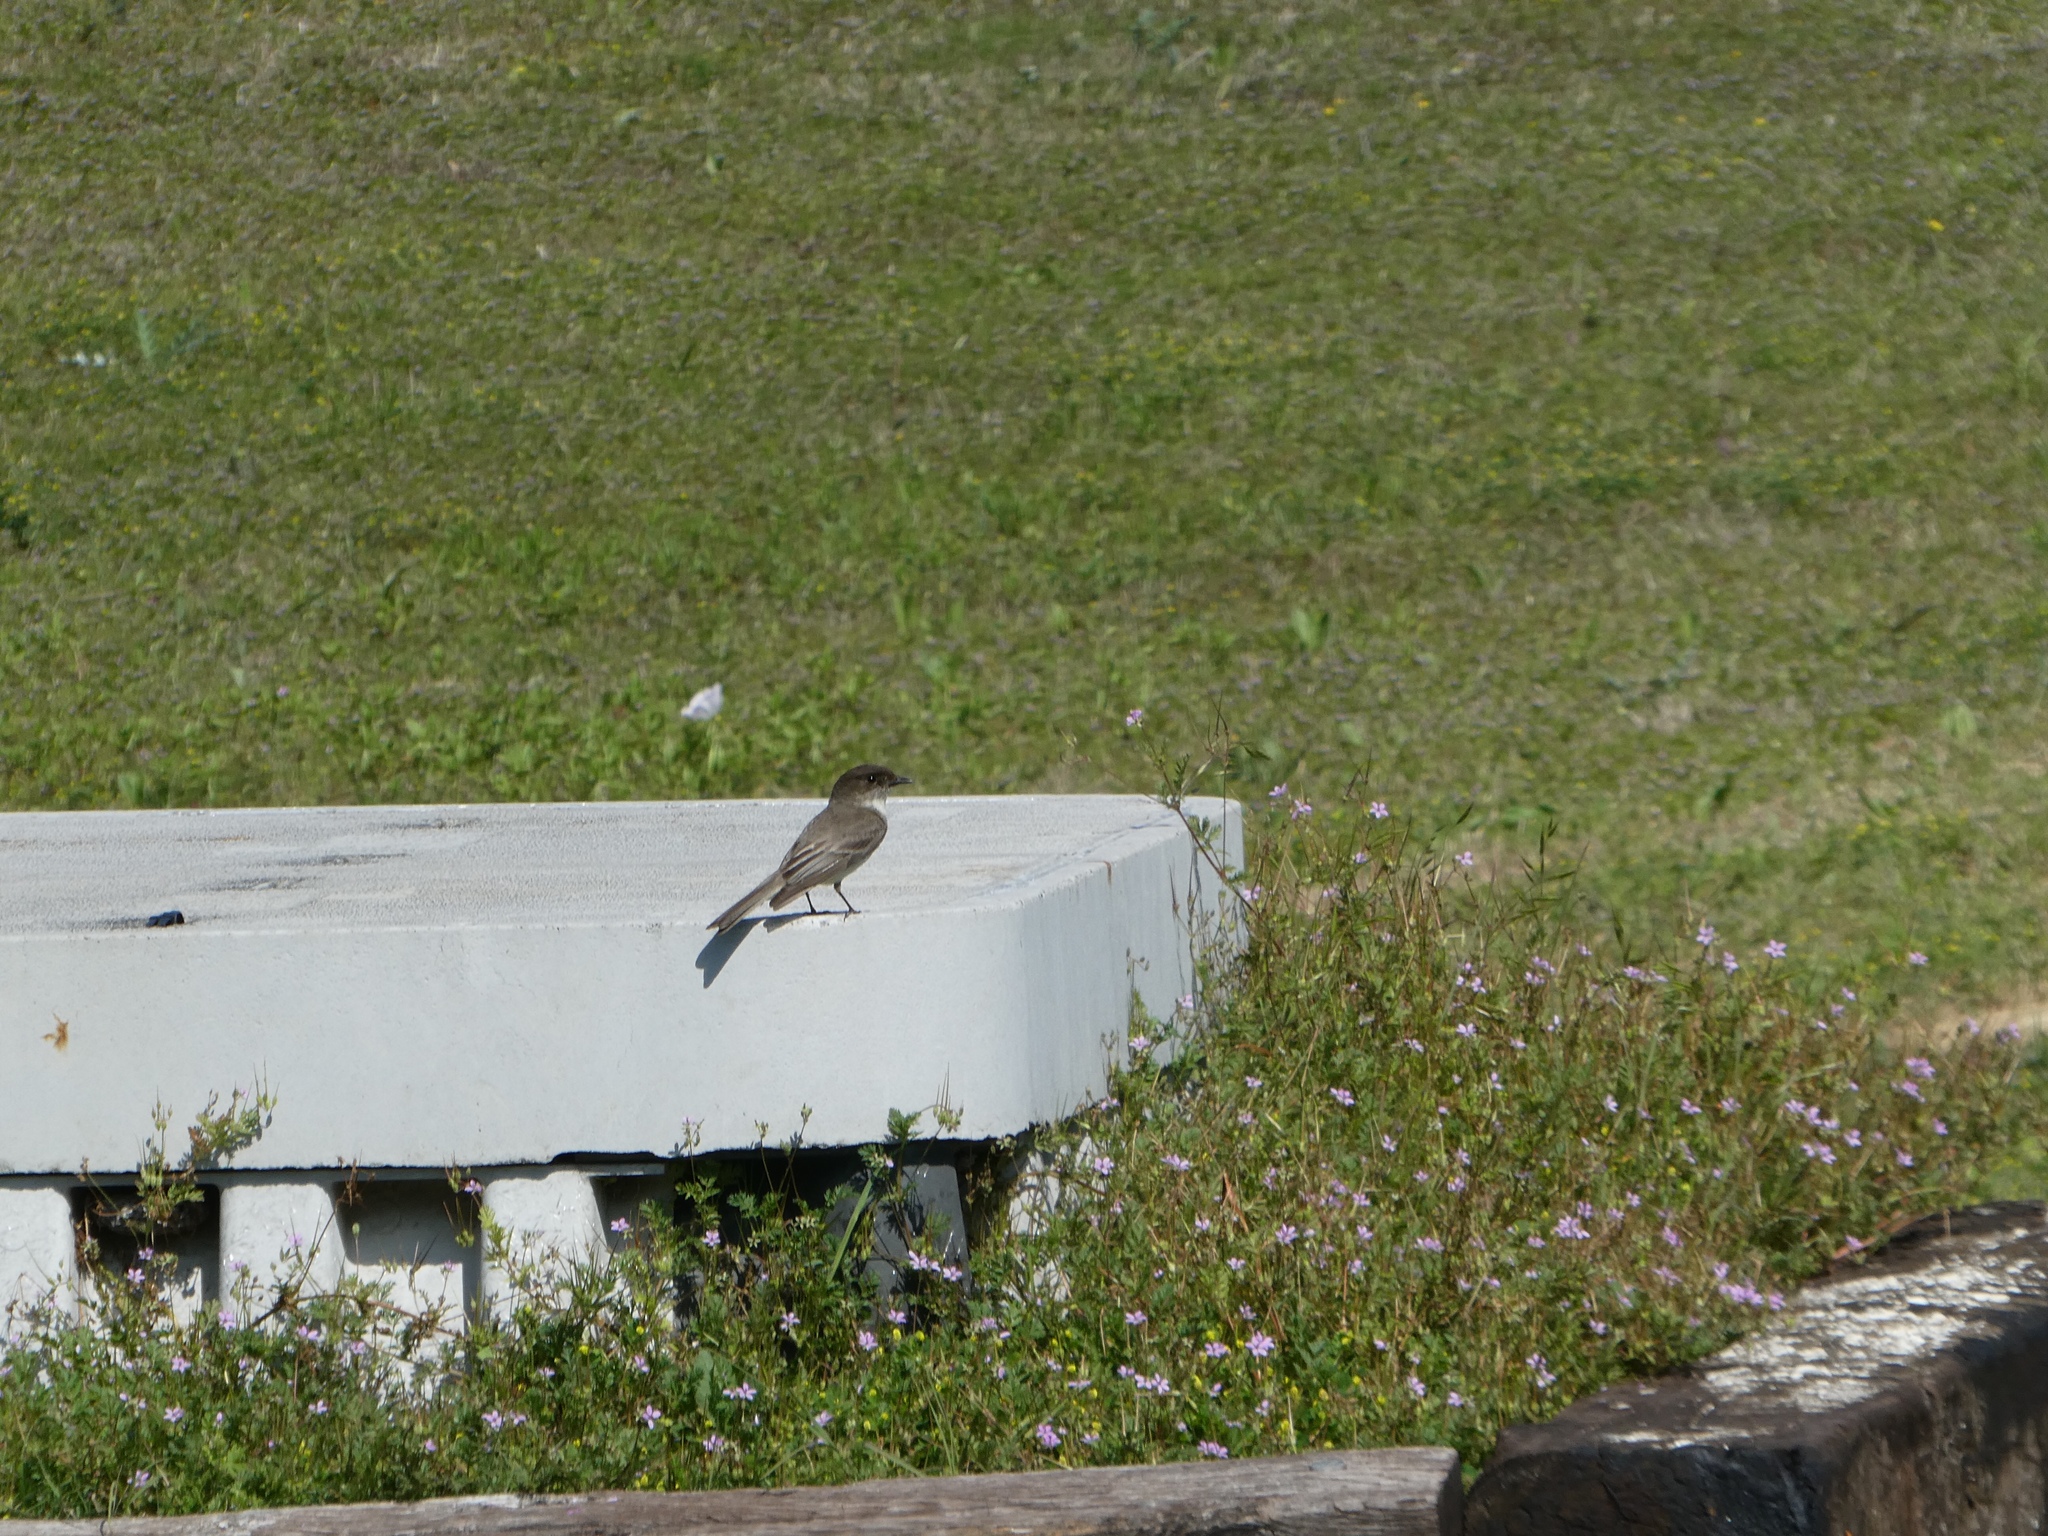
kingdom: Animalia
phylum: Chordata
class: Aves
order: Passeriformes
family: Tyrannidae
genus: Sayornis
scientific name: Sayornis phoebe
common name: Eastern phoebe
